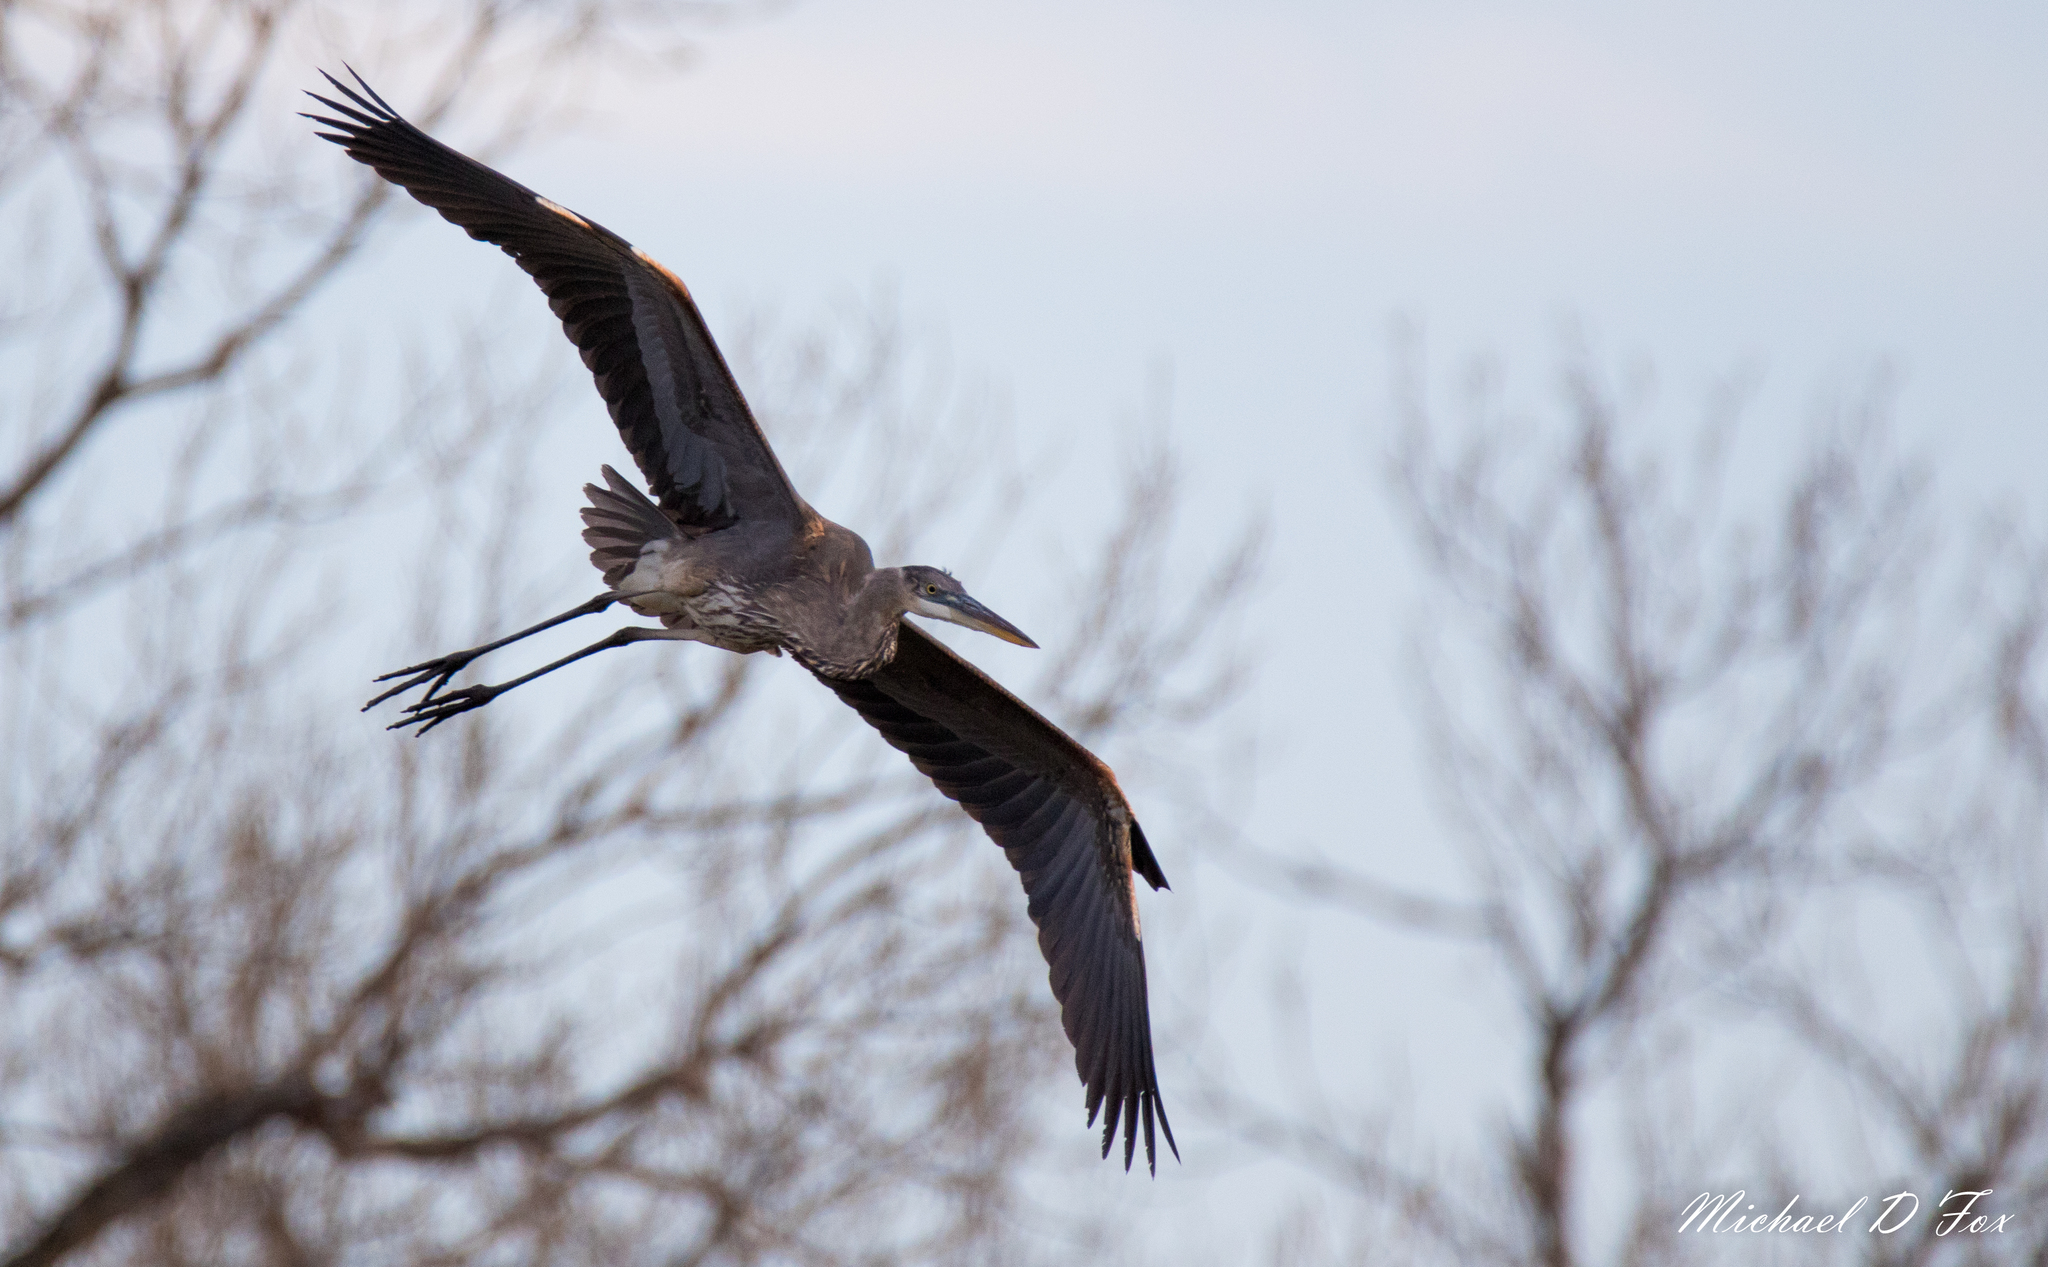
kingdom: Animalia
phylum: Chordata
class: Aves
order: Pelecaniformes
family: Ardeidae
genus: Ardea
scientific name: Ardea herodias
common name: Great blue heron
